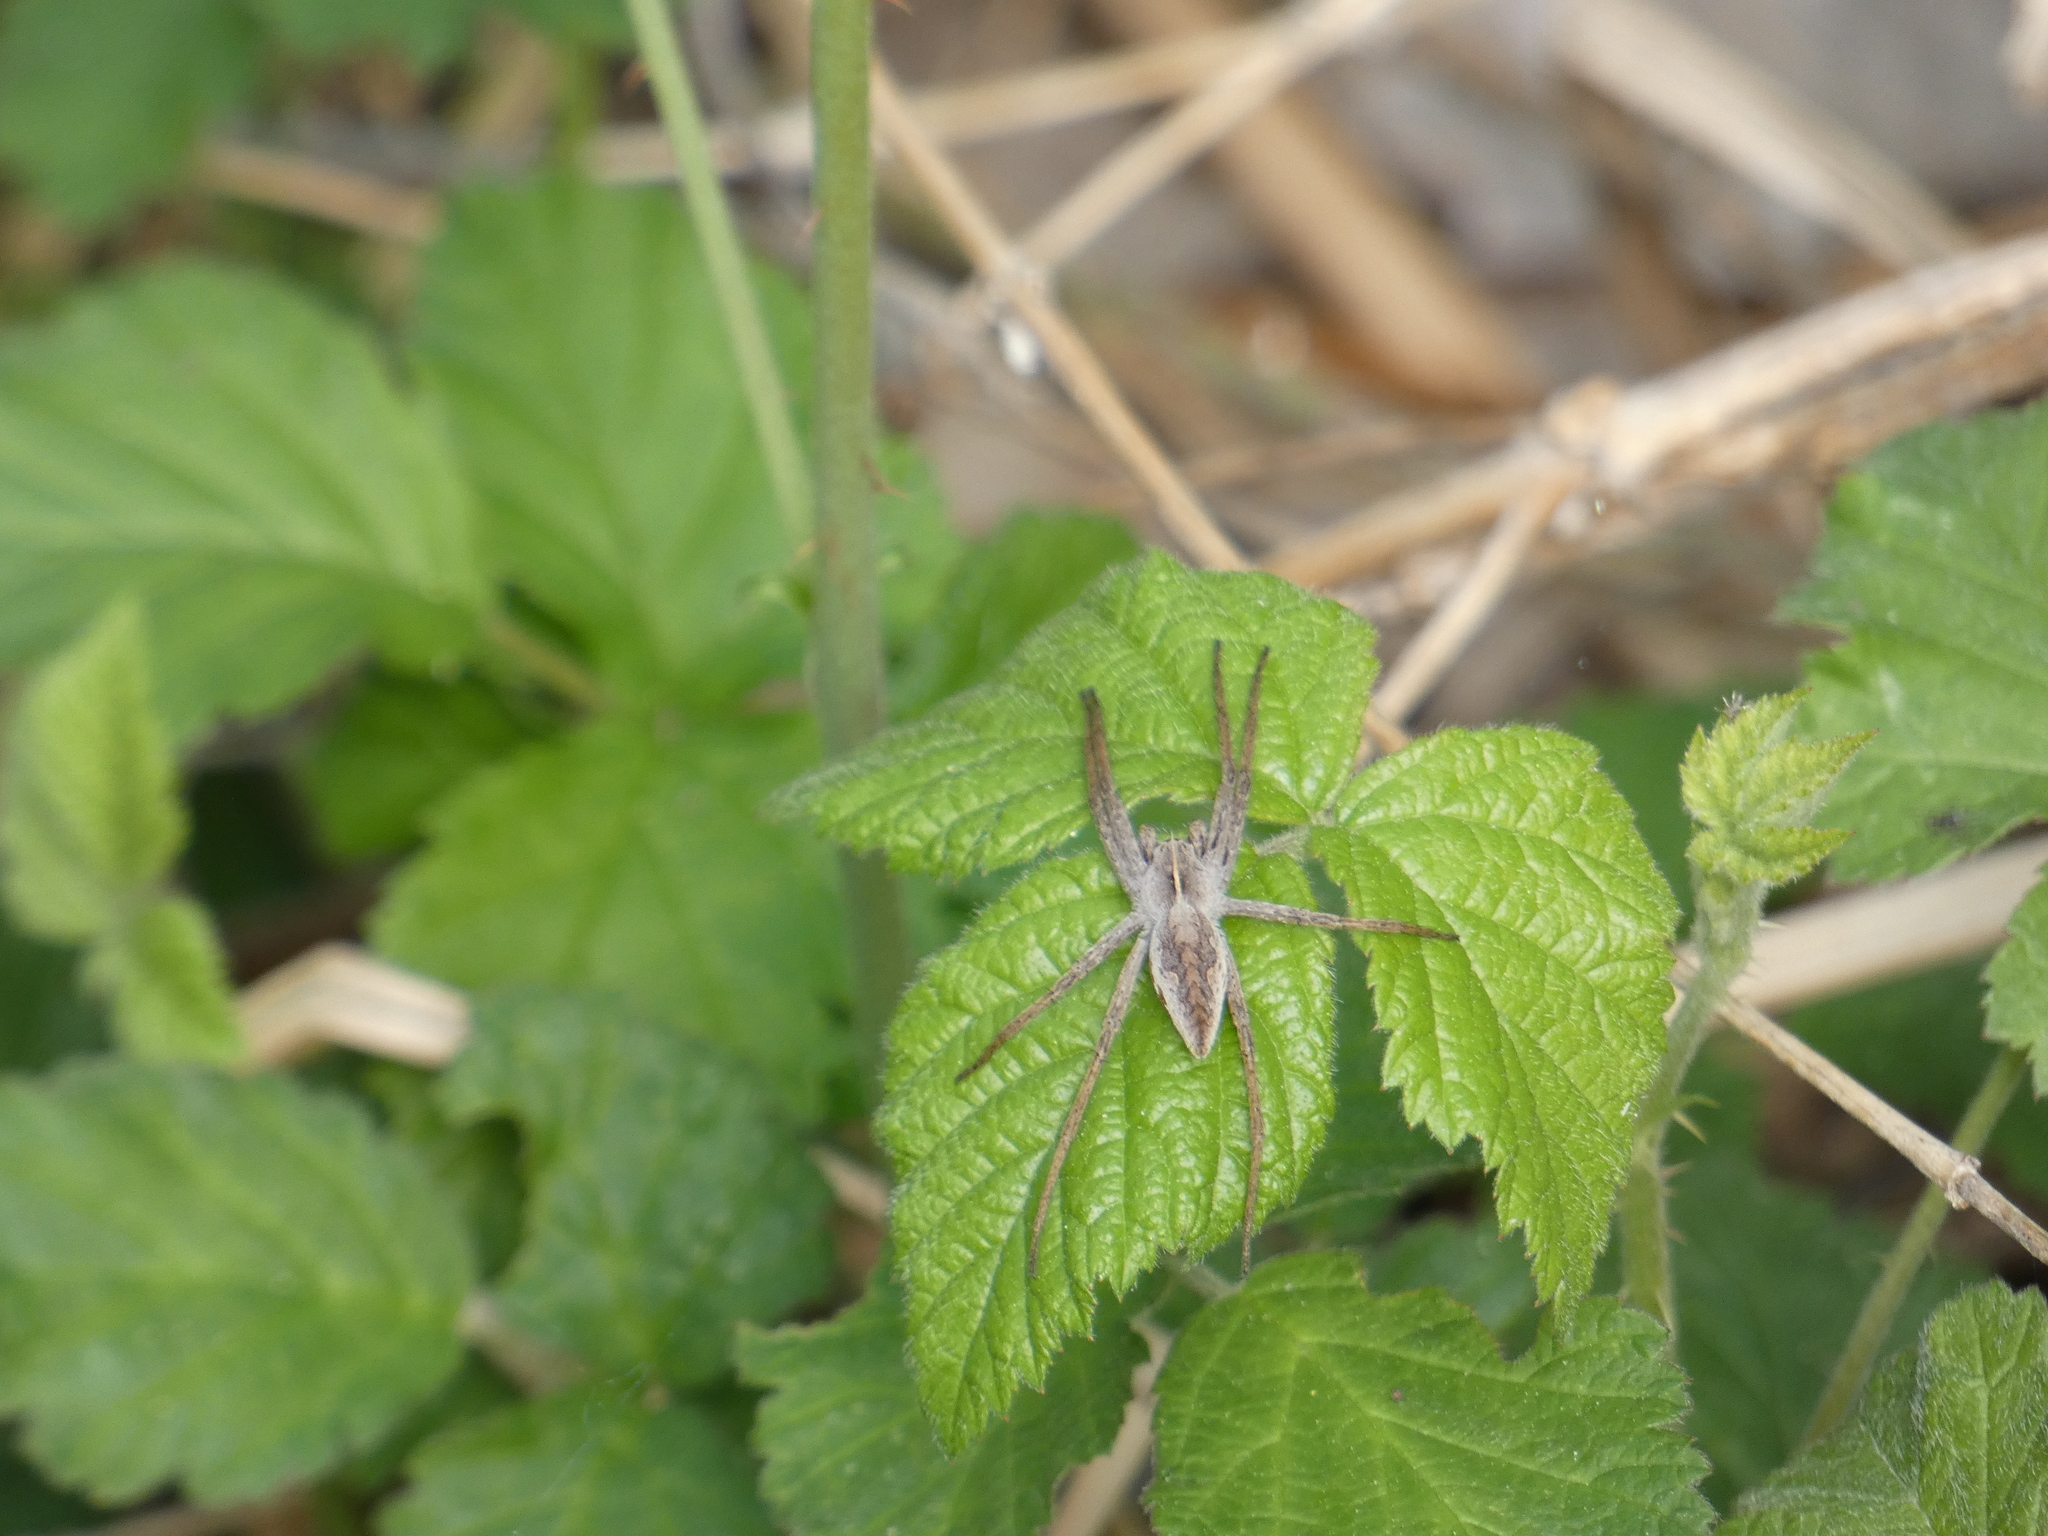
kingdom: Animalia
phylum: Arthropoda
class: Arachnida
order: Araneae
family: Pisauridae
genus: Pisaura
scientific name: Pisaura mirabilis
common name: Tent spider
